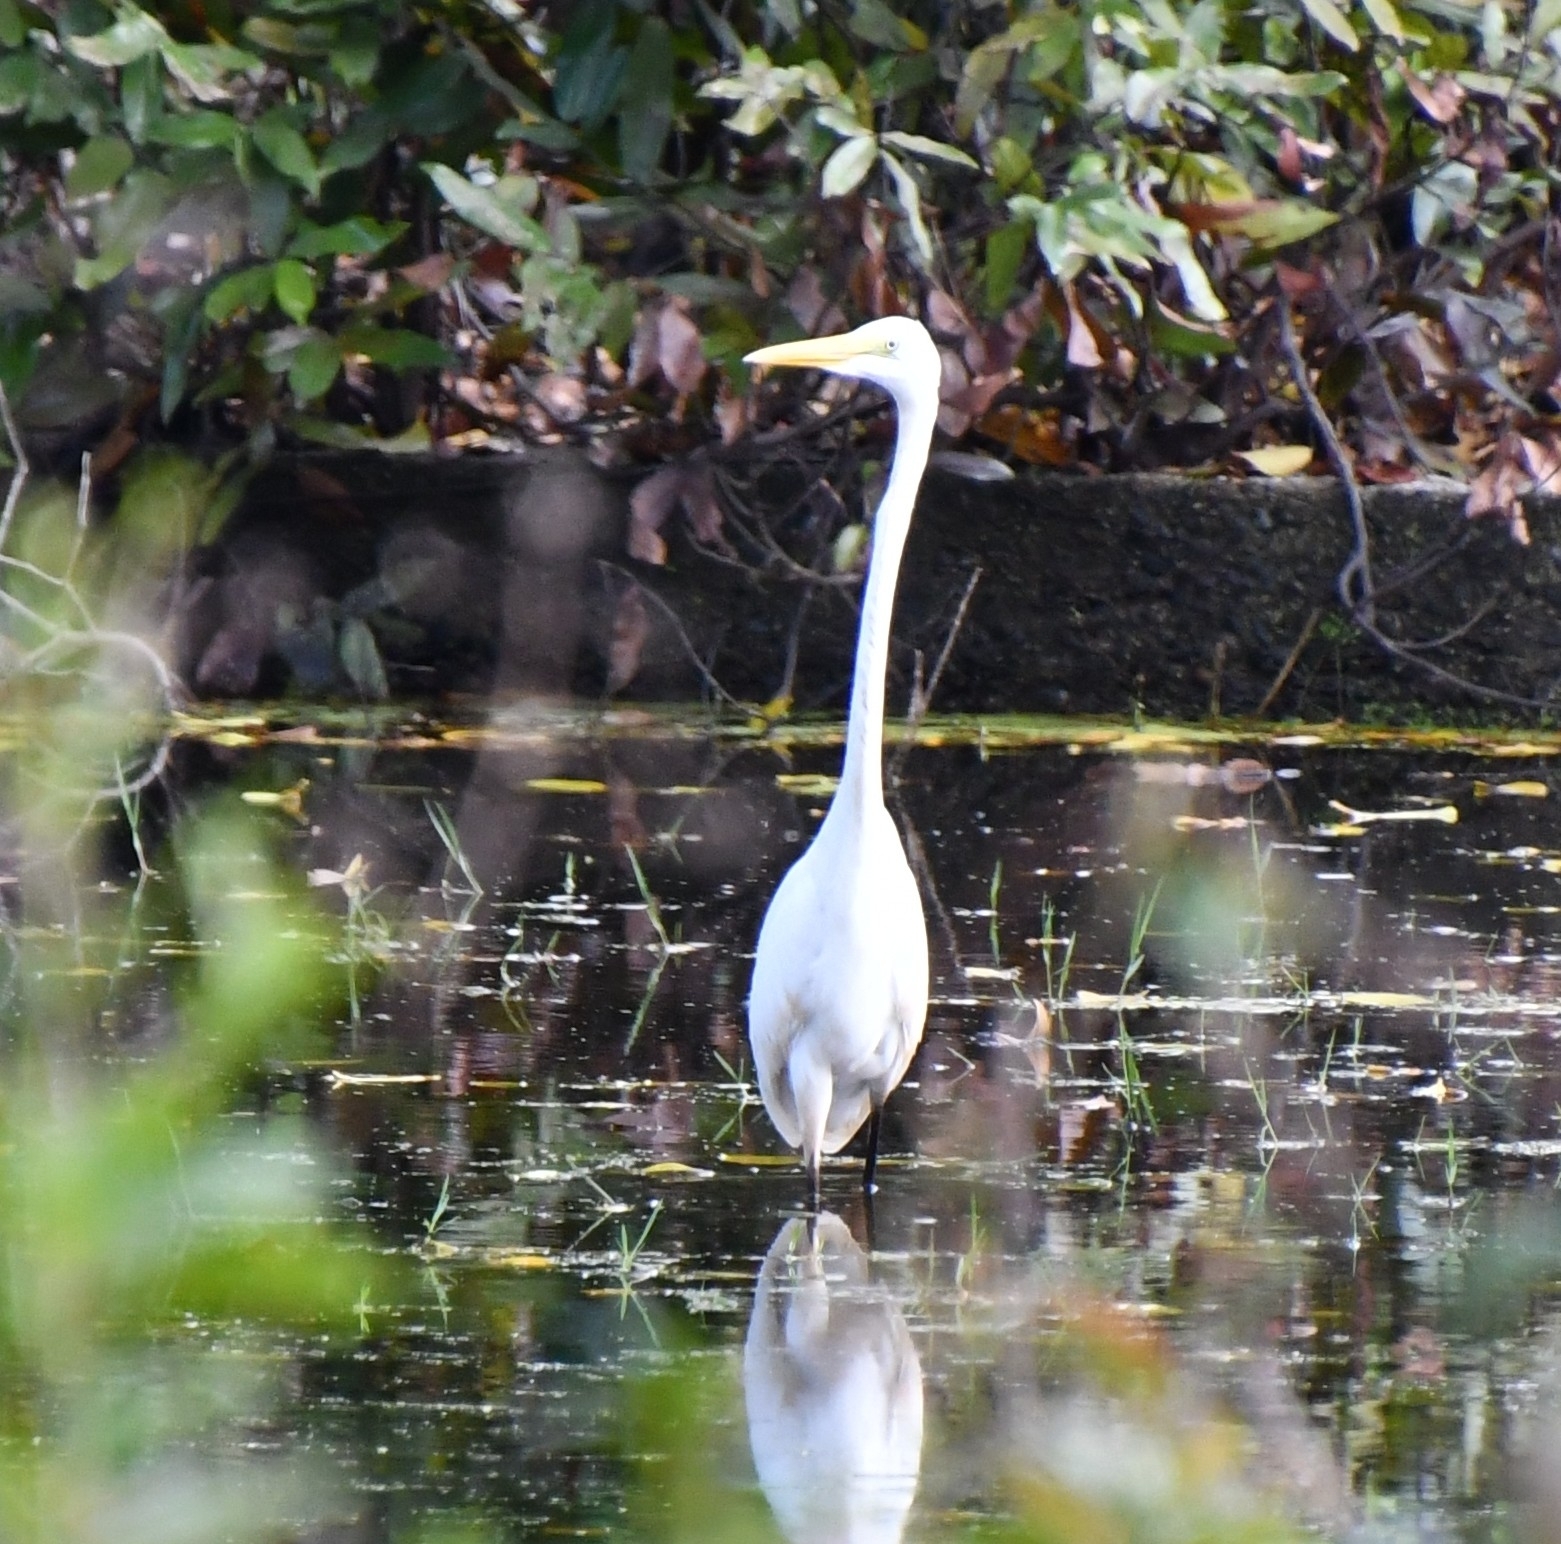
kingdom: Animalia
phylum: Chordata
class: Aves
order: Pelecaniformes
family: Ardeidae
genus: Ardea
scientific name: Ardea alba
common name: Great egret
